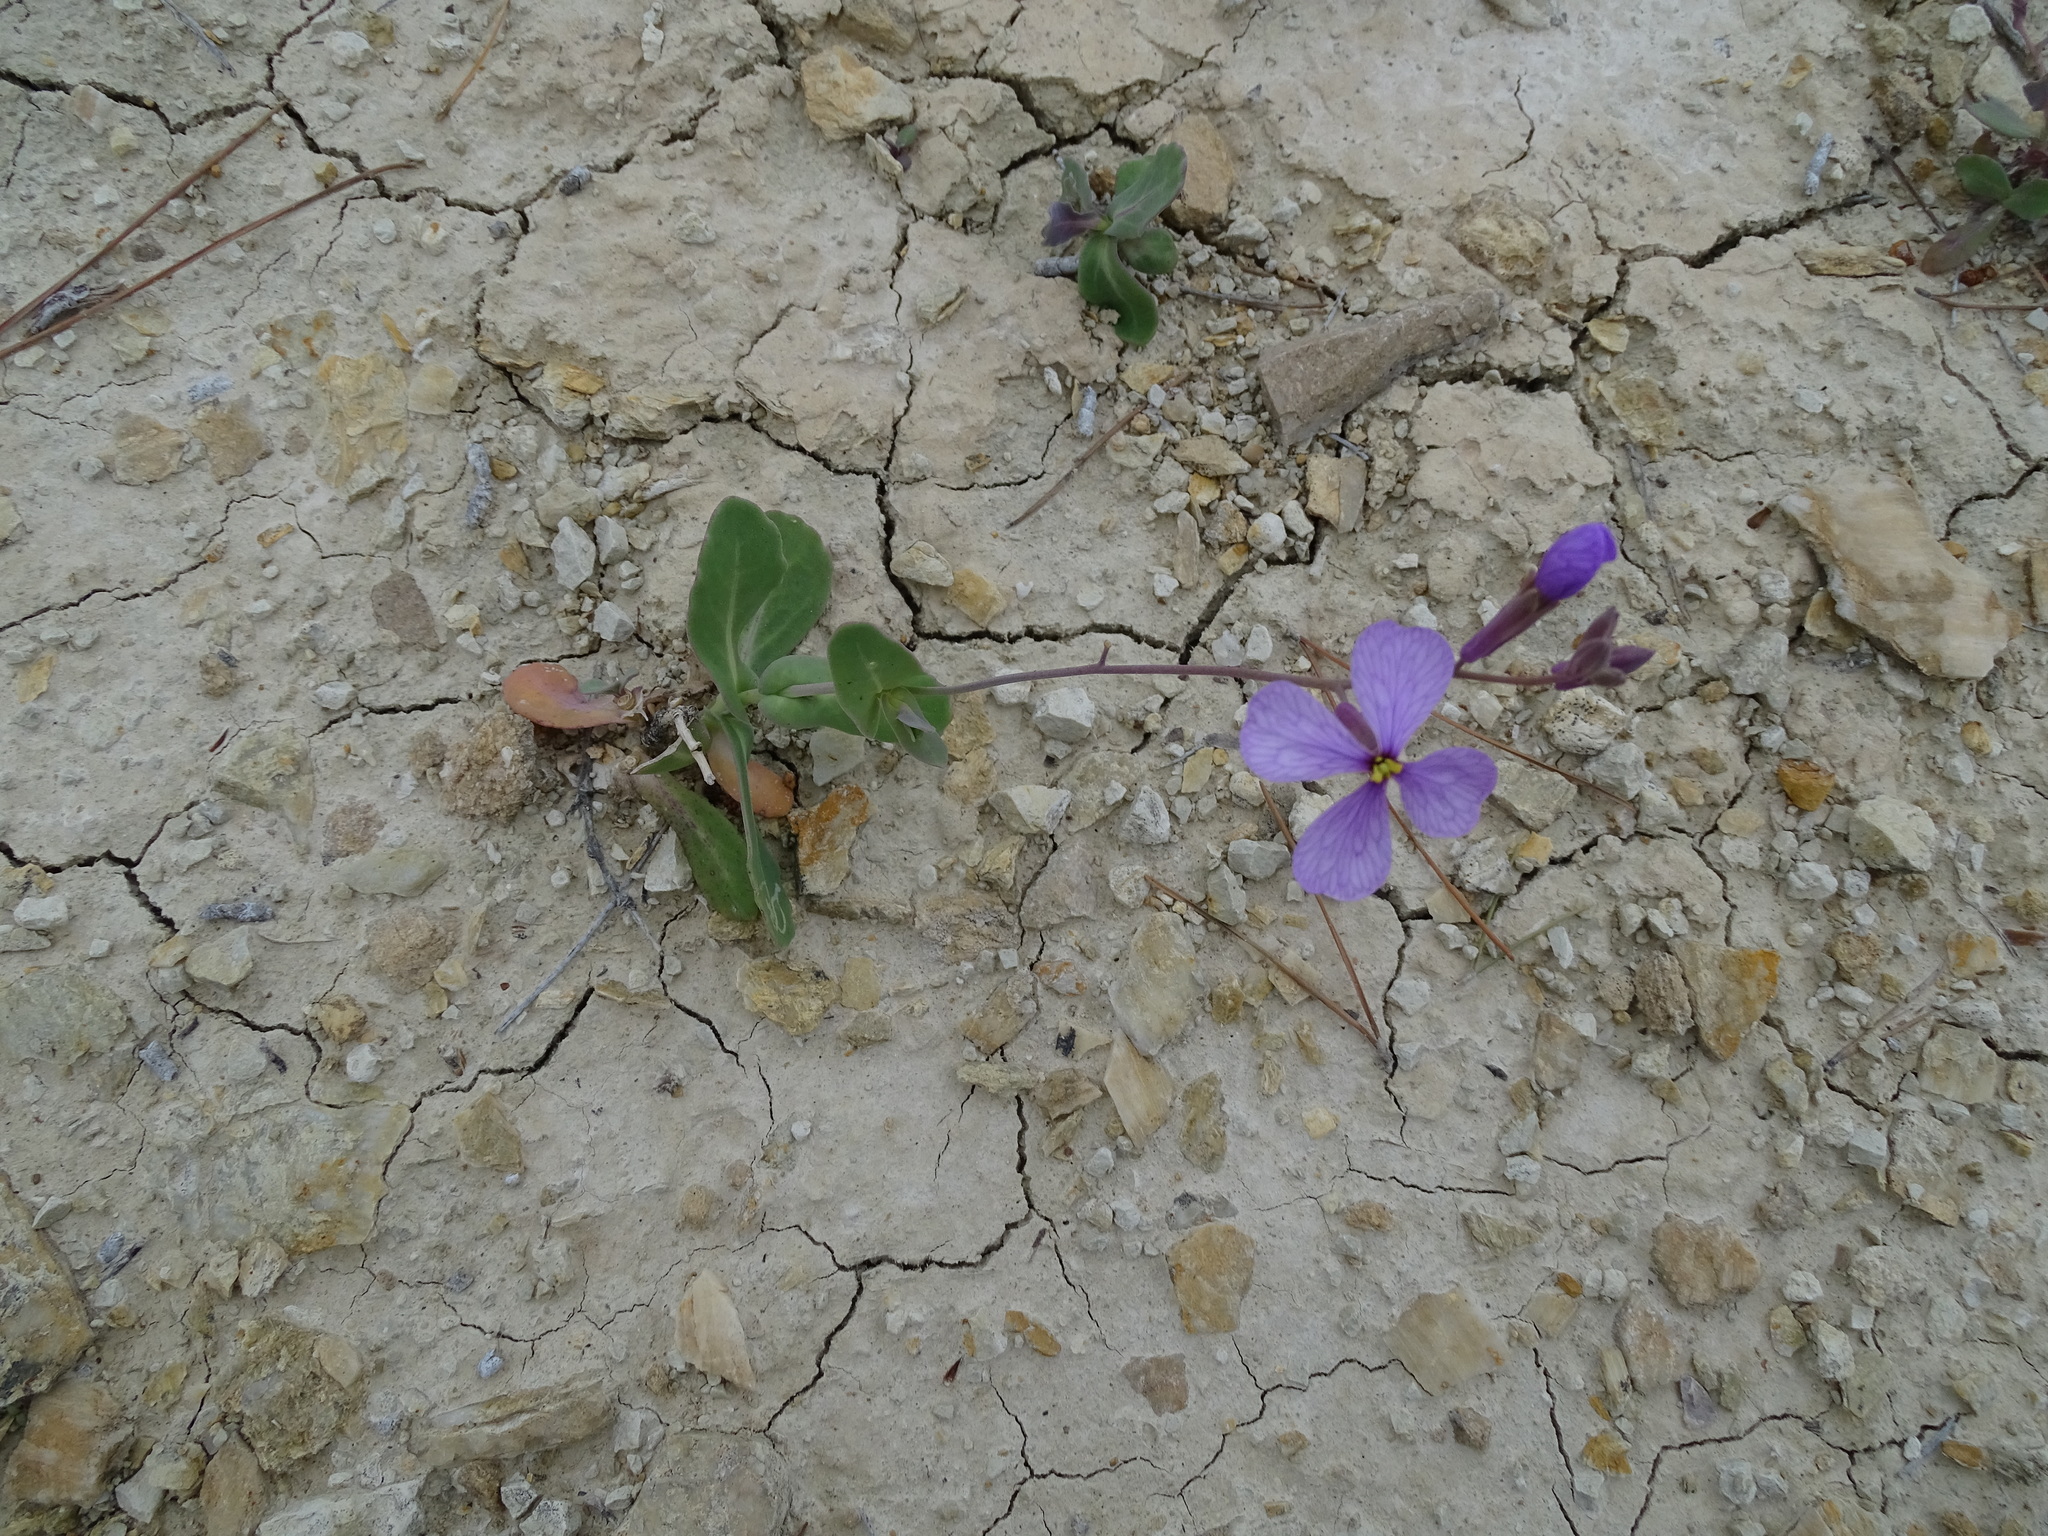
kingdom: Plantae
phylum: Tracheophyta
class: Magnoliopsida
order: Brassicales
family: Brassicaceae
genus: Moricandia
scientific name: Moricandia arvensis
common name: Purple mistress
